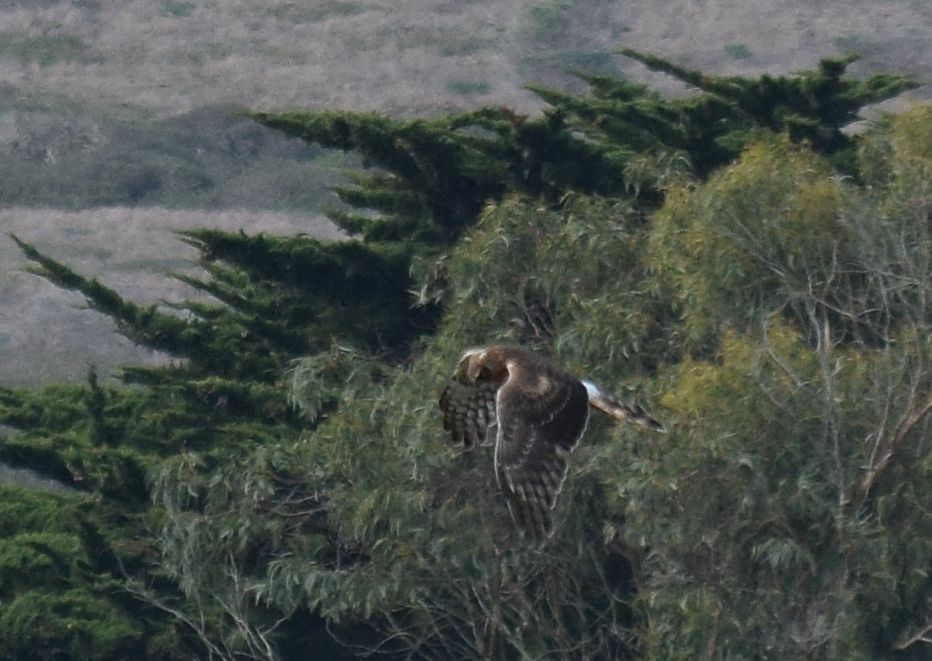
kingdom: Animalia
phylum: Chordata
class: Aves
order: Accipitriformes
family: Accipitridae
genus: Circus
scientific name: Circus cyaneus
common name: Hen harrier
